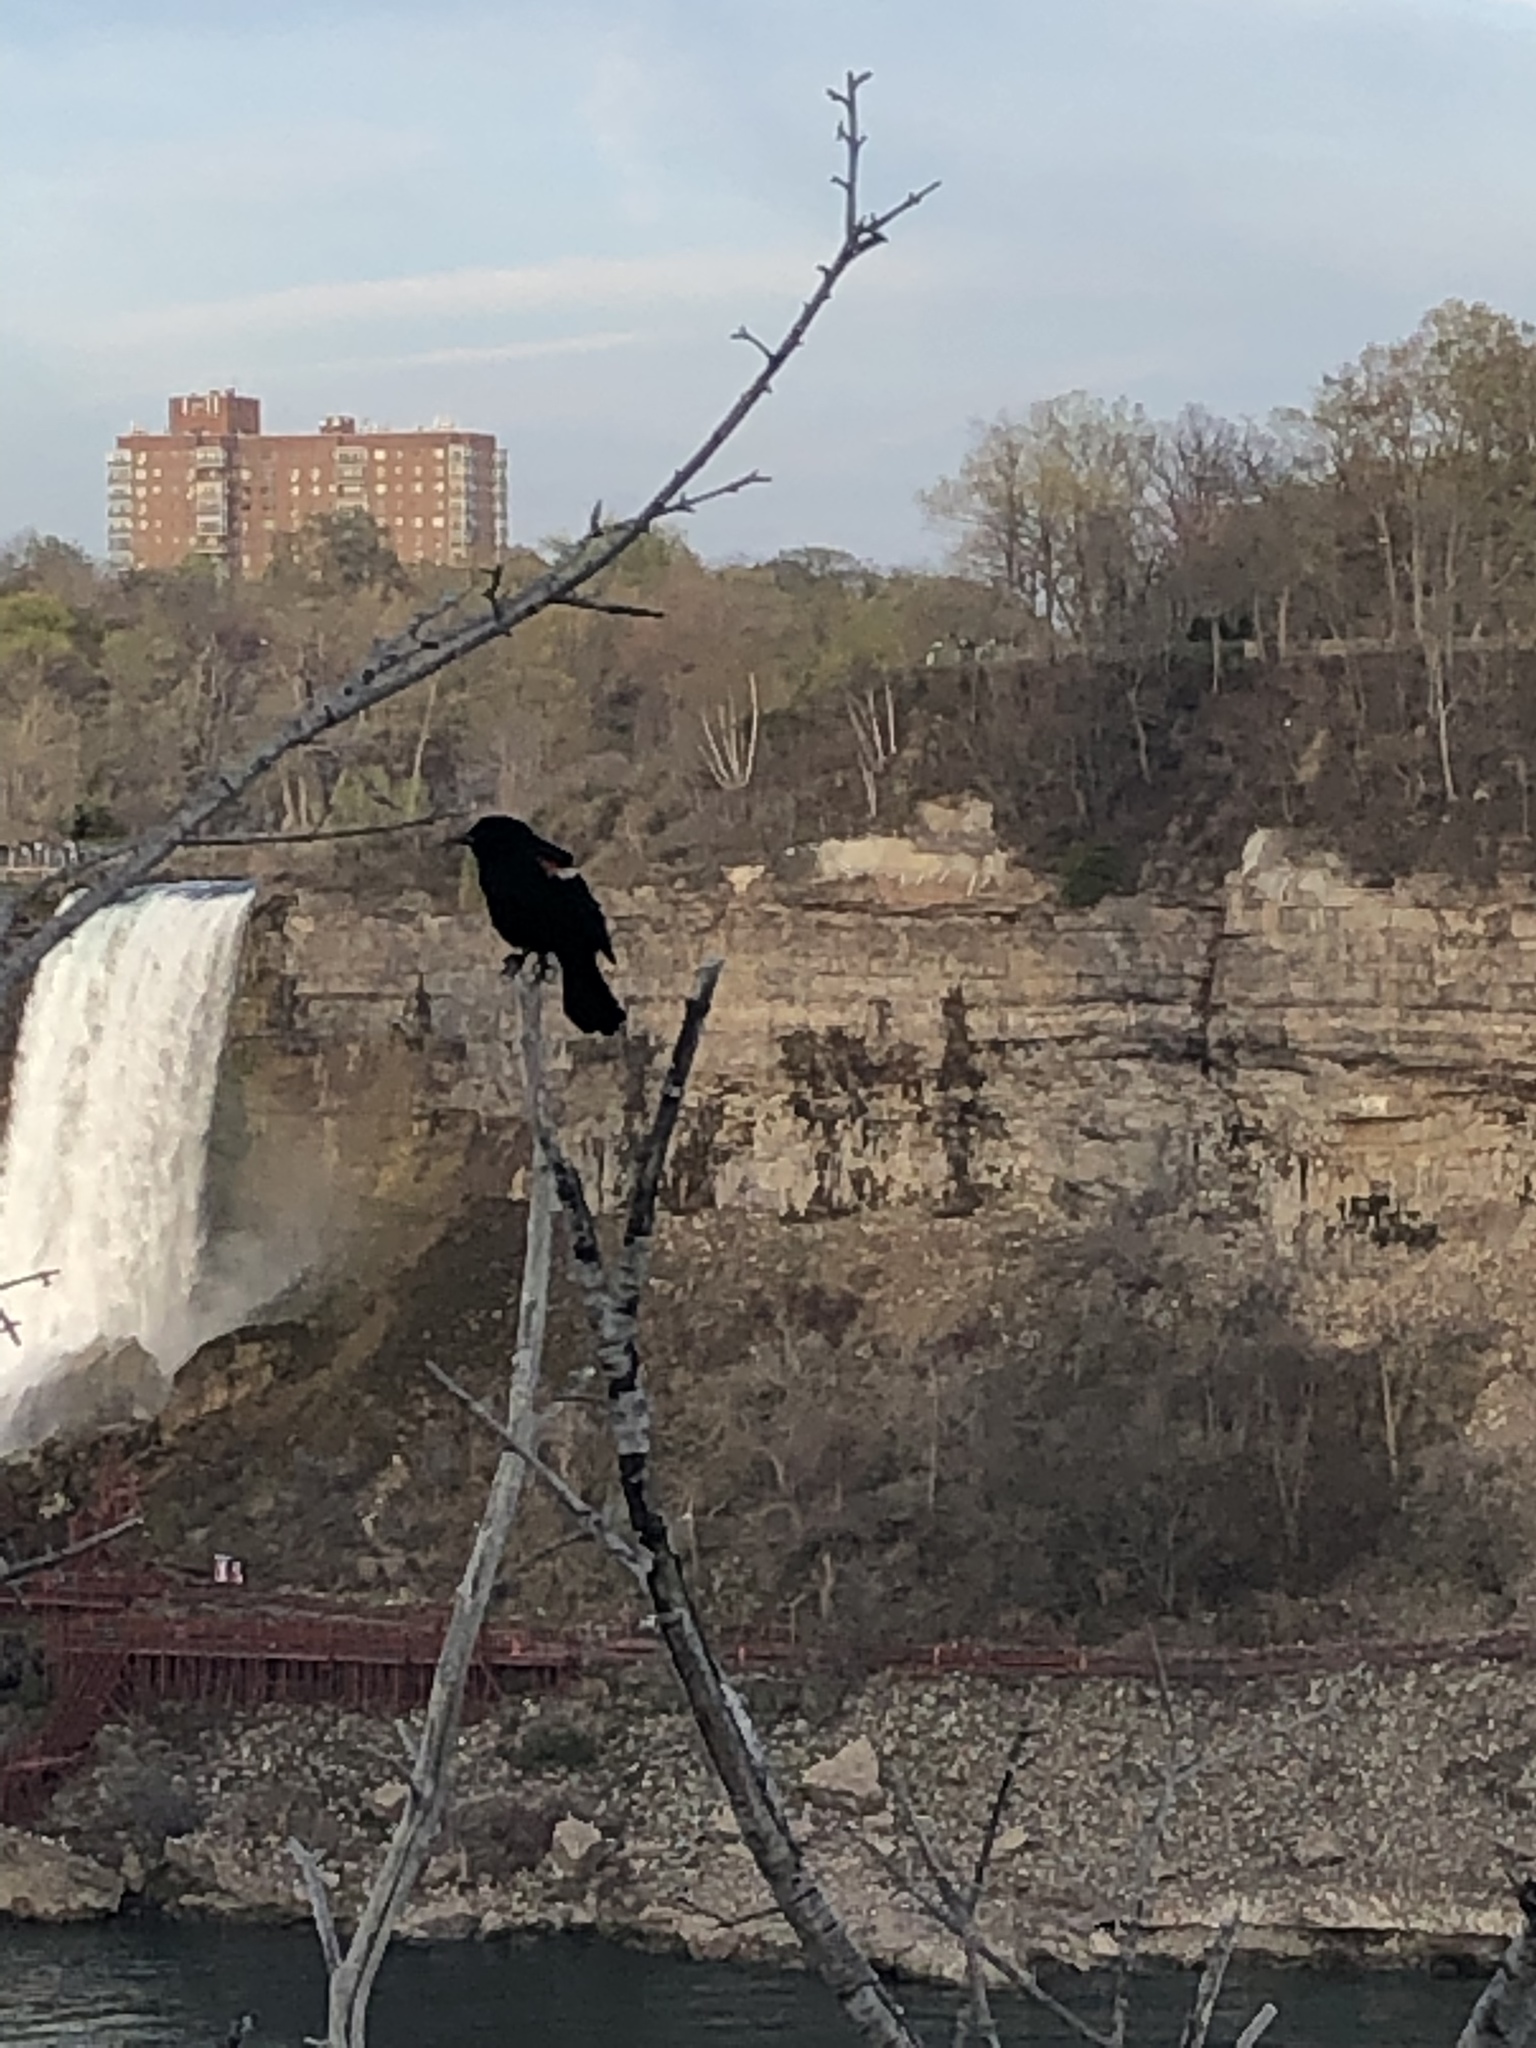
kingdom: Animalia
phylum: Chordata
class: Aves
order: Passeriformes
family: Icteridae
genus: Agelaius
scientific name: Agelaius phoeniceus
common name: Red-winged blackbird
